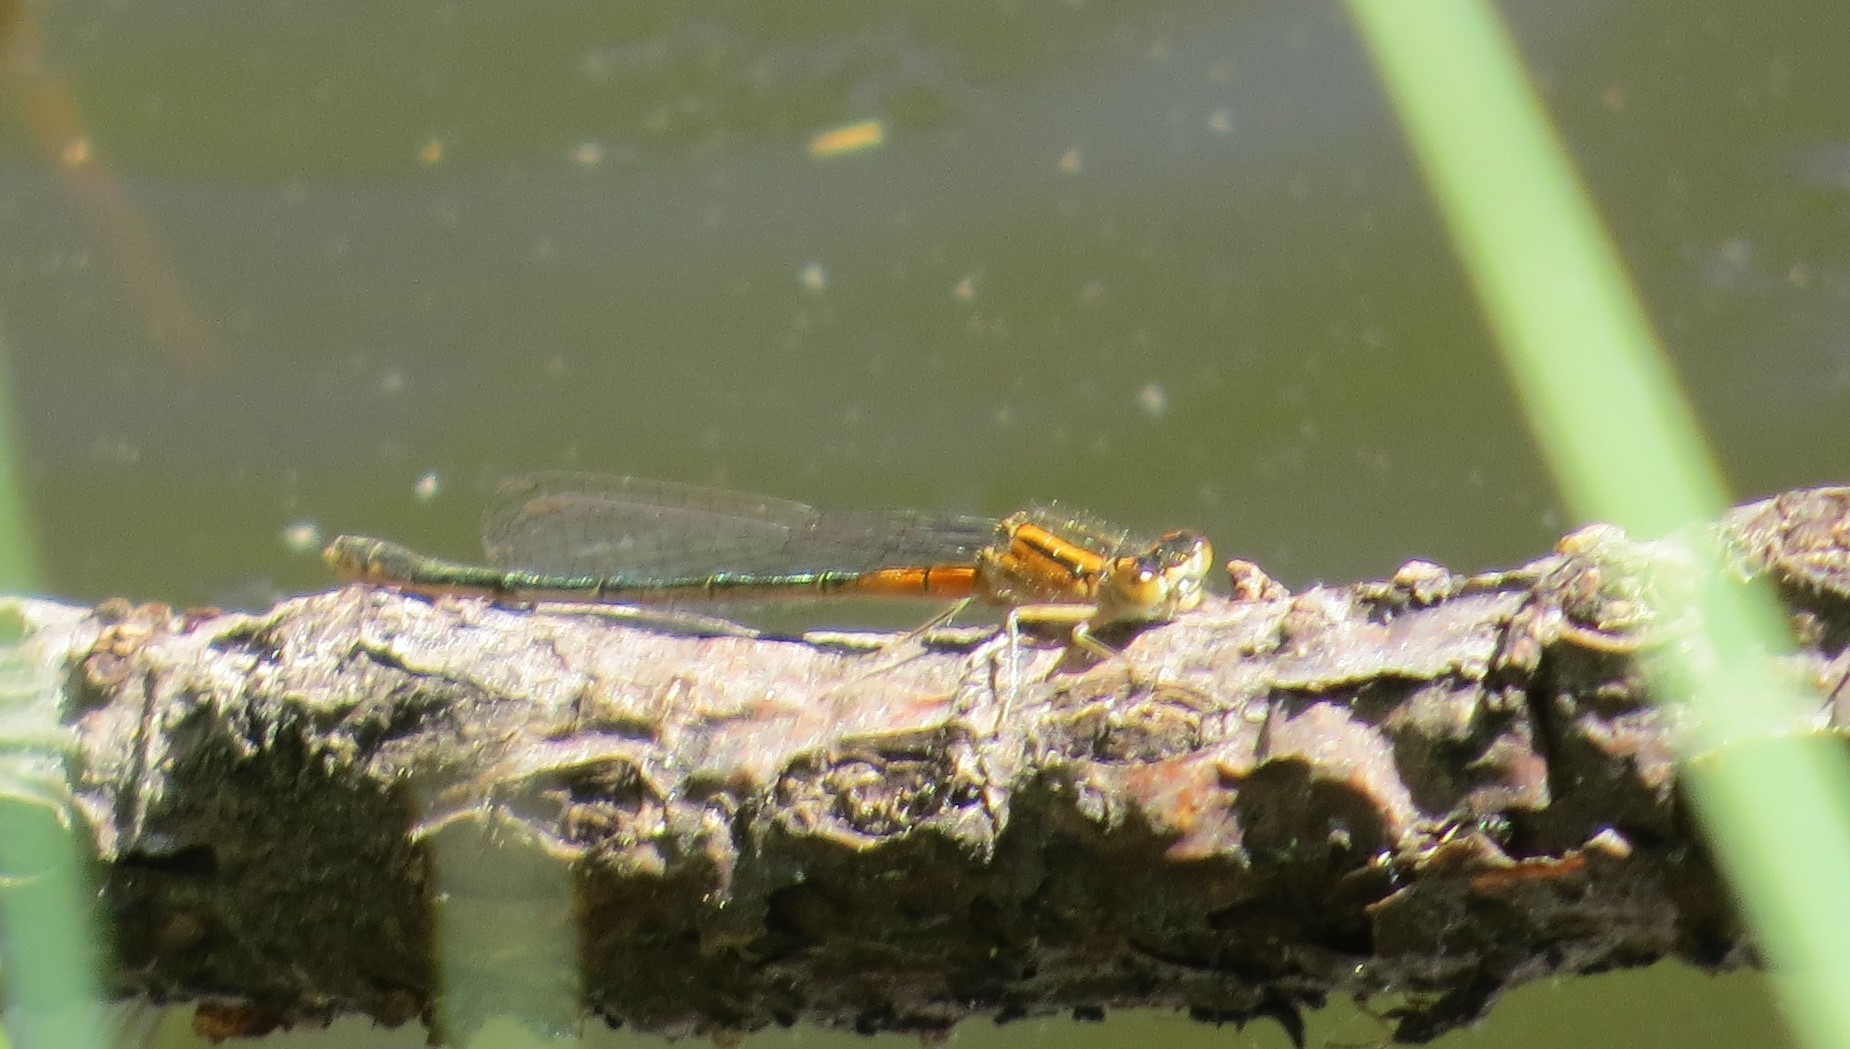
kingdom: Animalia
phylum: Arthropoda
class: Insecta
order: Odonata
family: Coenagrionidae
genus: Ischnura
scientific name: Ischnura verticalis
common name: Eastern forktail
